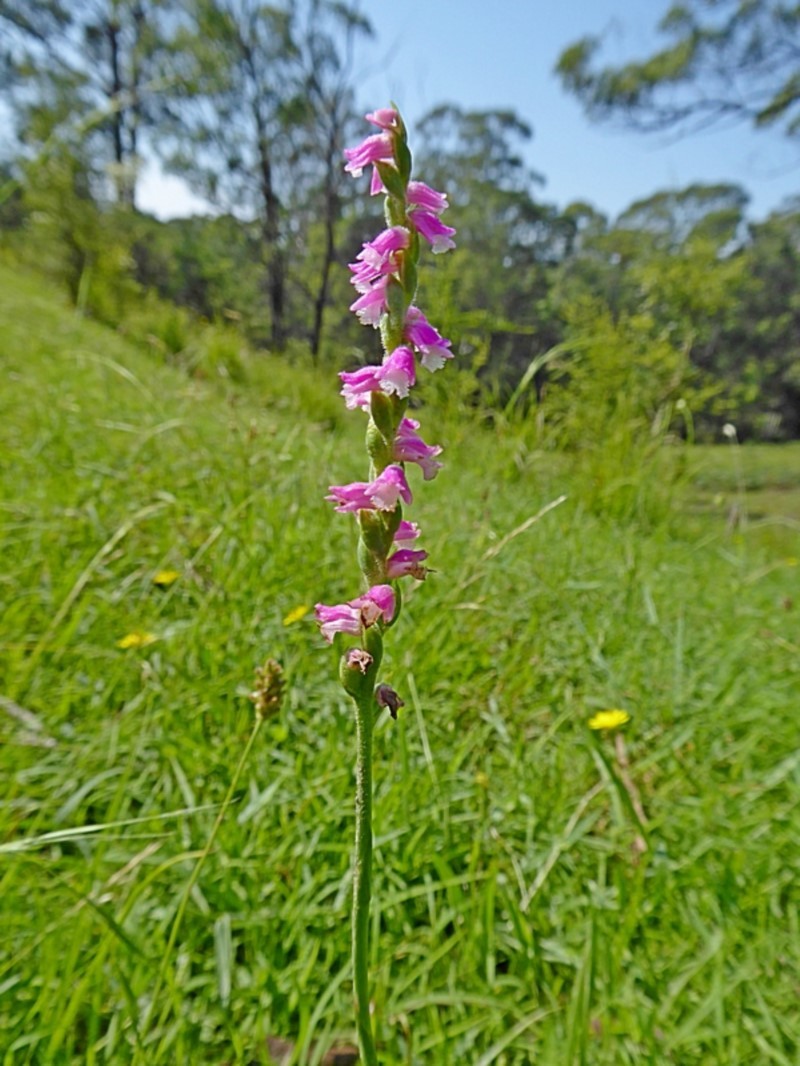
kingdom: Plantae
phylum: Tracheophyta
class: Liliopsida
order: Asparagales
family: Orchidaceae
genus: Spiranthes
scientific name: Spiranthes australis
